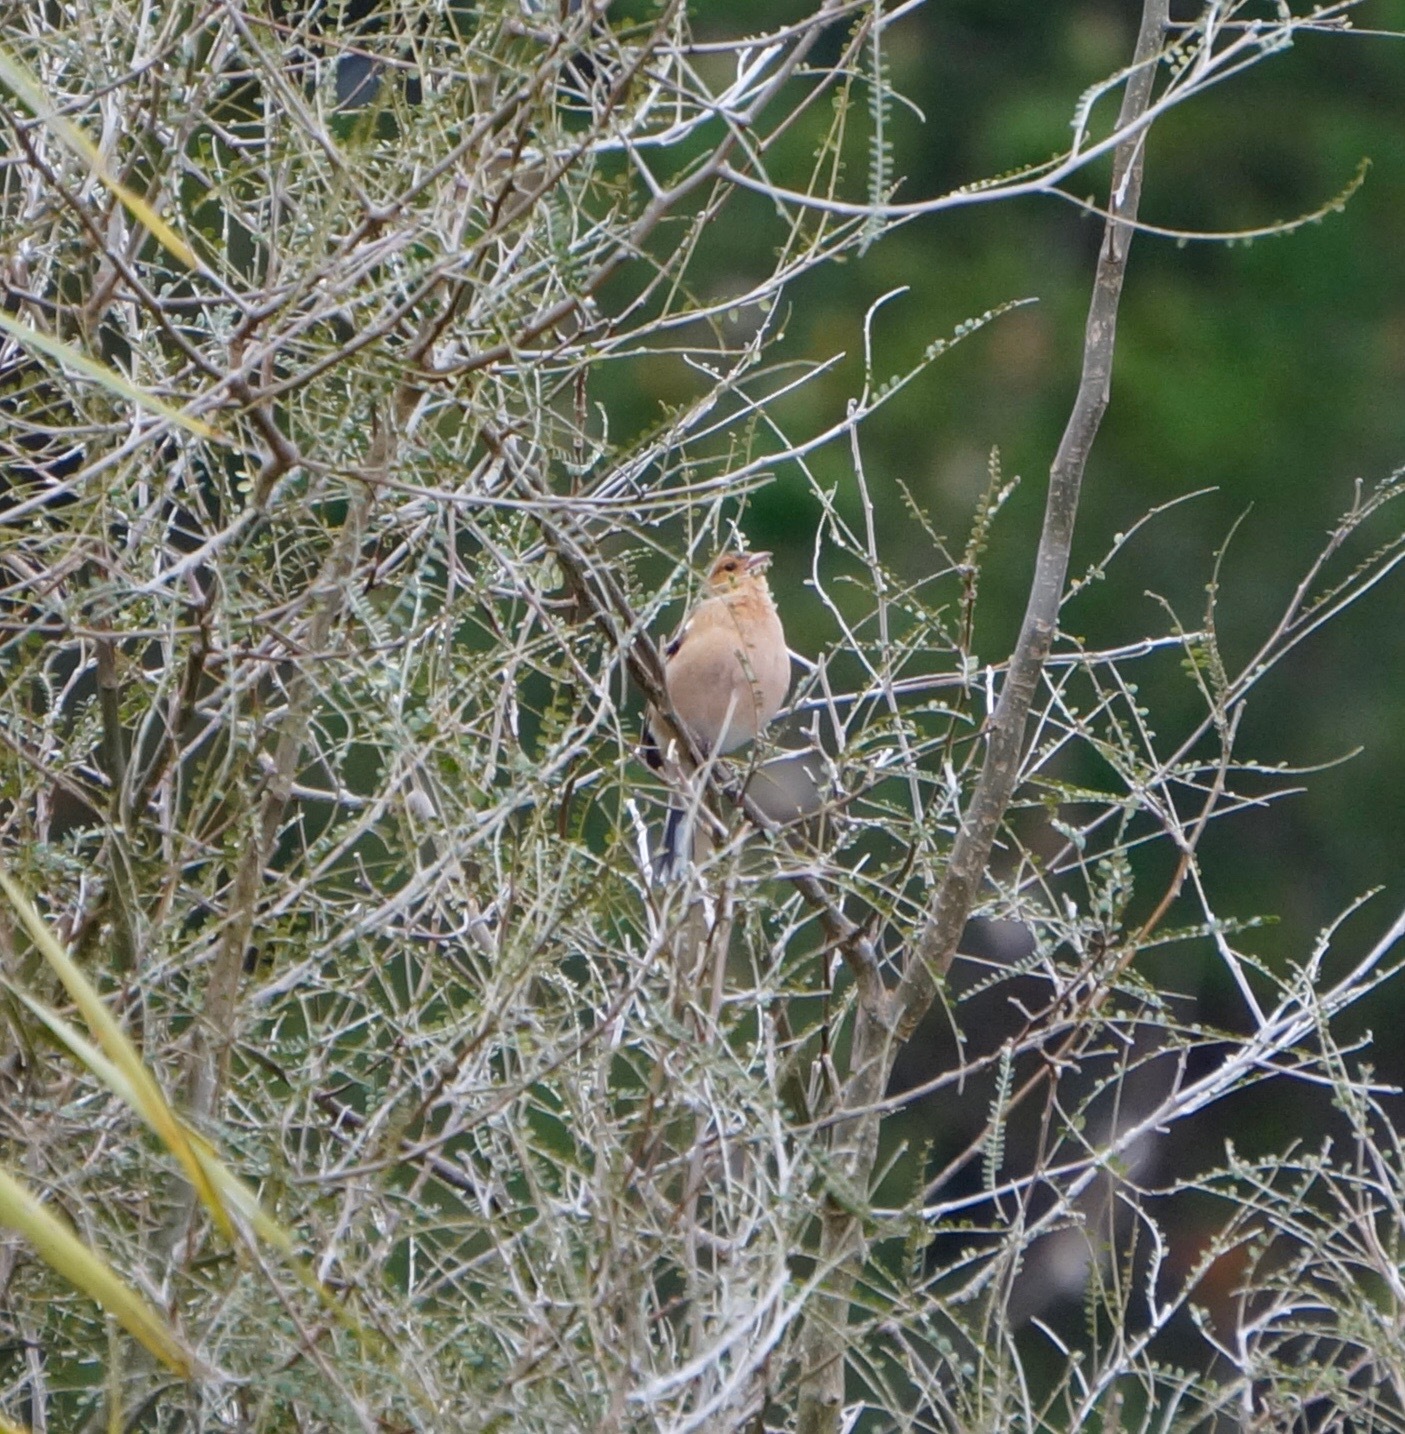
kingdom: Animalia
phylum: Chordata
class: Aves
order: Passeriformes
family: Fringillidae
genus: Fringilla
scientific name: Fringilla coelebs
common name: Common chaffinch
